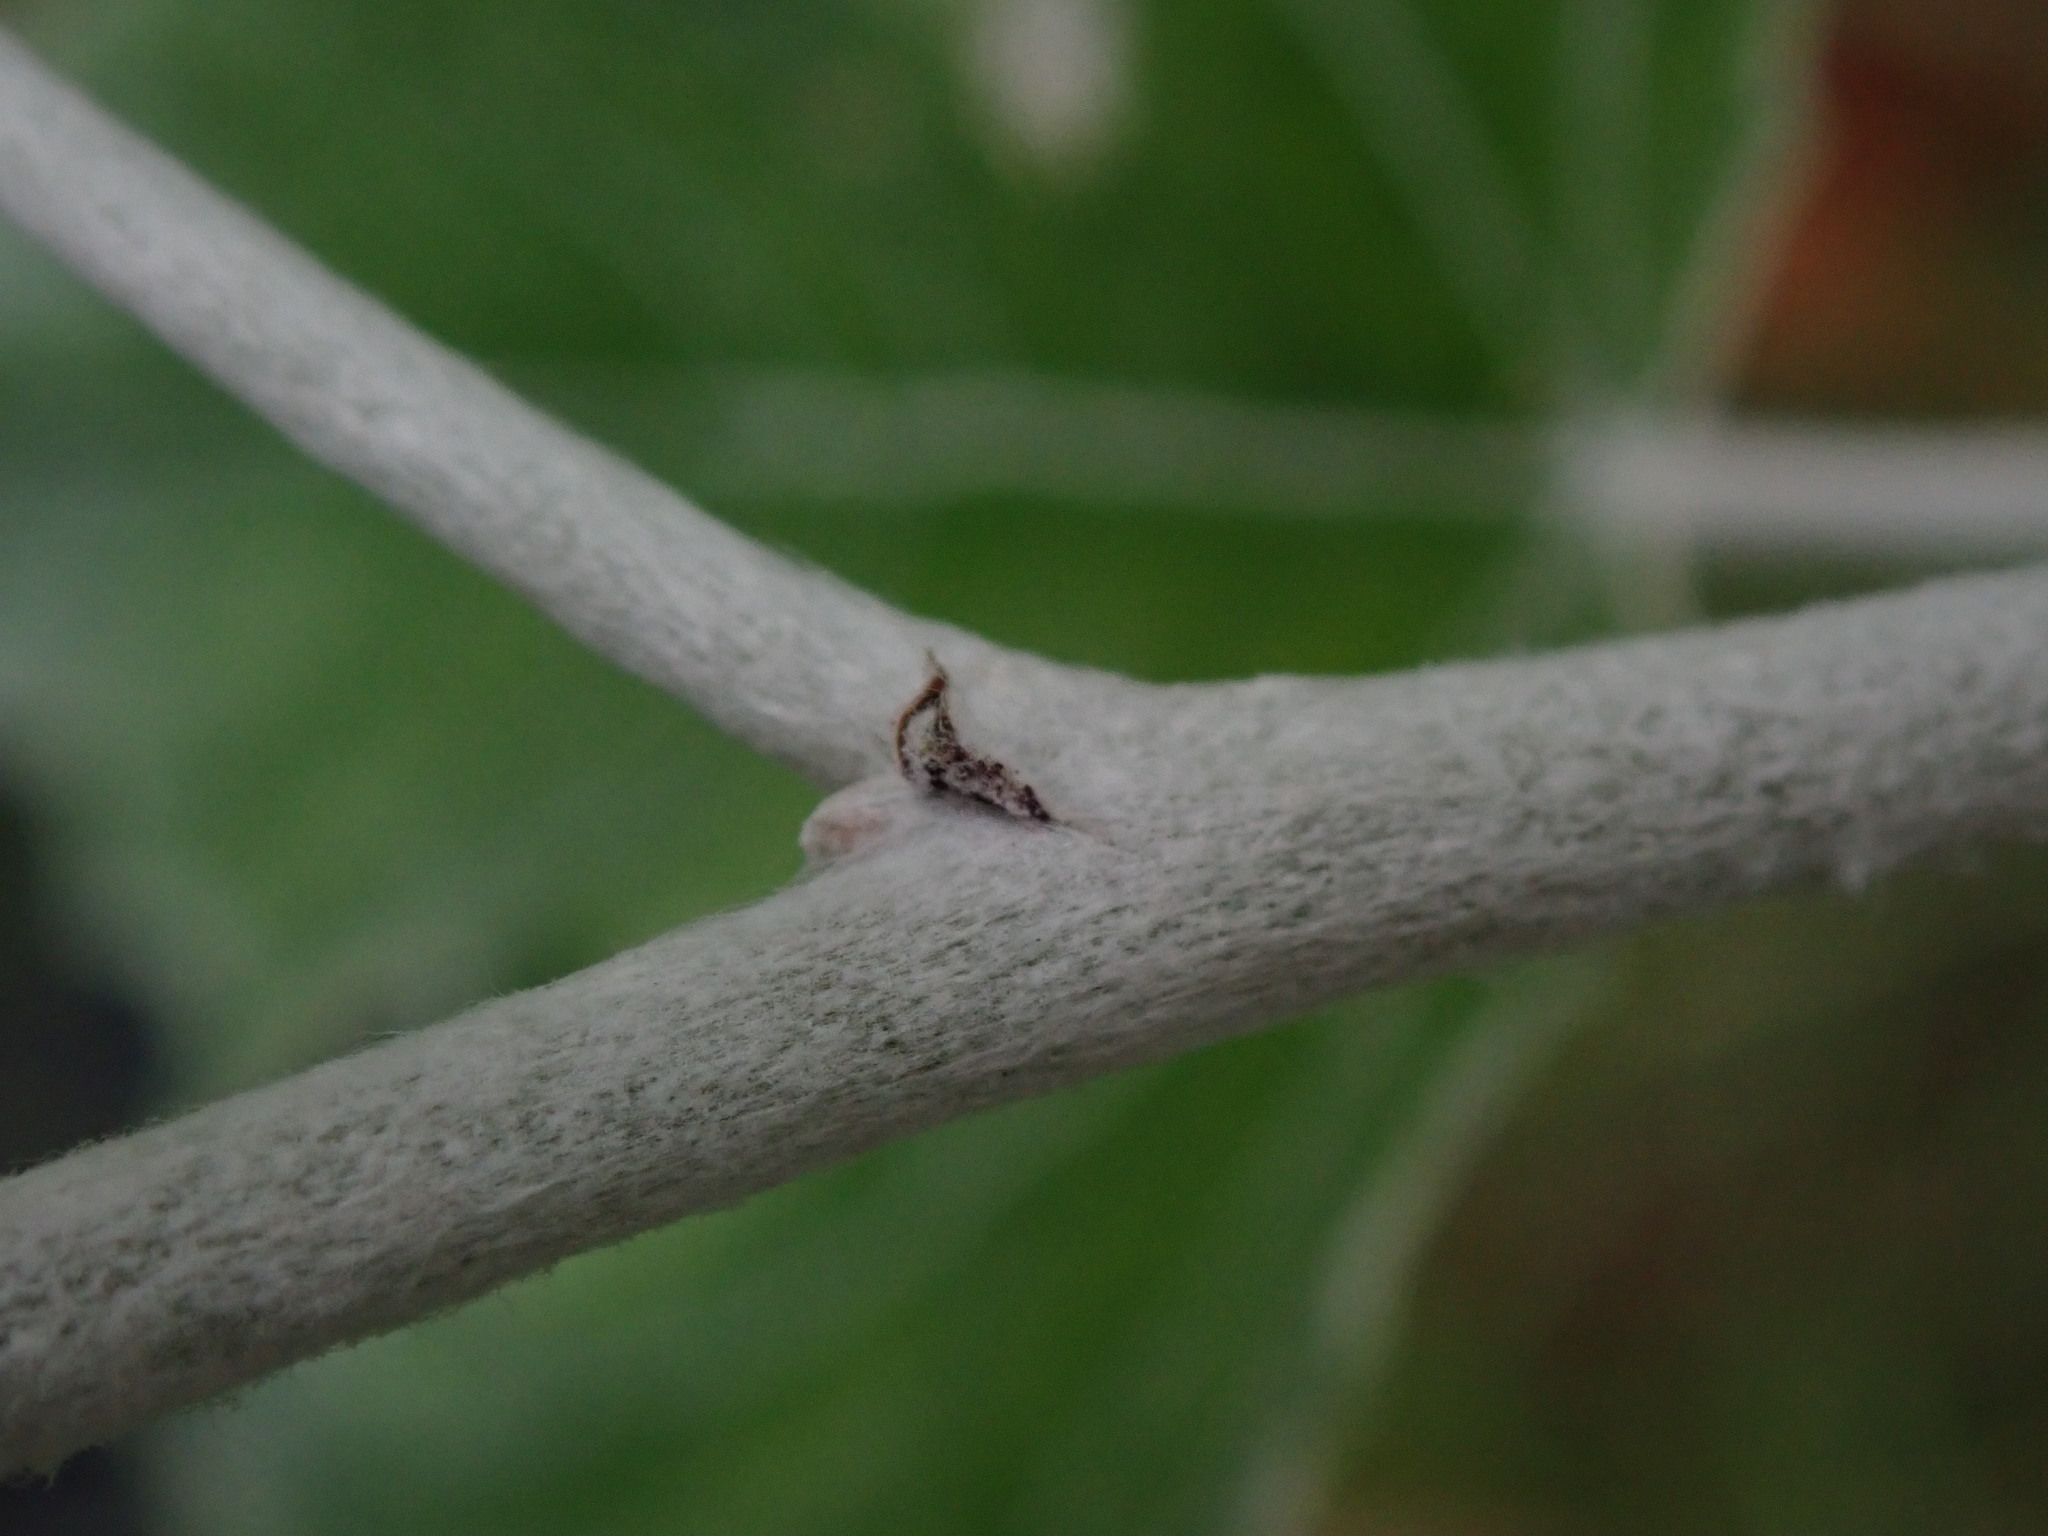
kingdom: Plantae
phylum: Tracheophyta
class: Magnoliopsida
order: Malpighiales
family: Salicaceae
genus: Populus
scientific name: Populus alba
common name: White poplar
